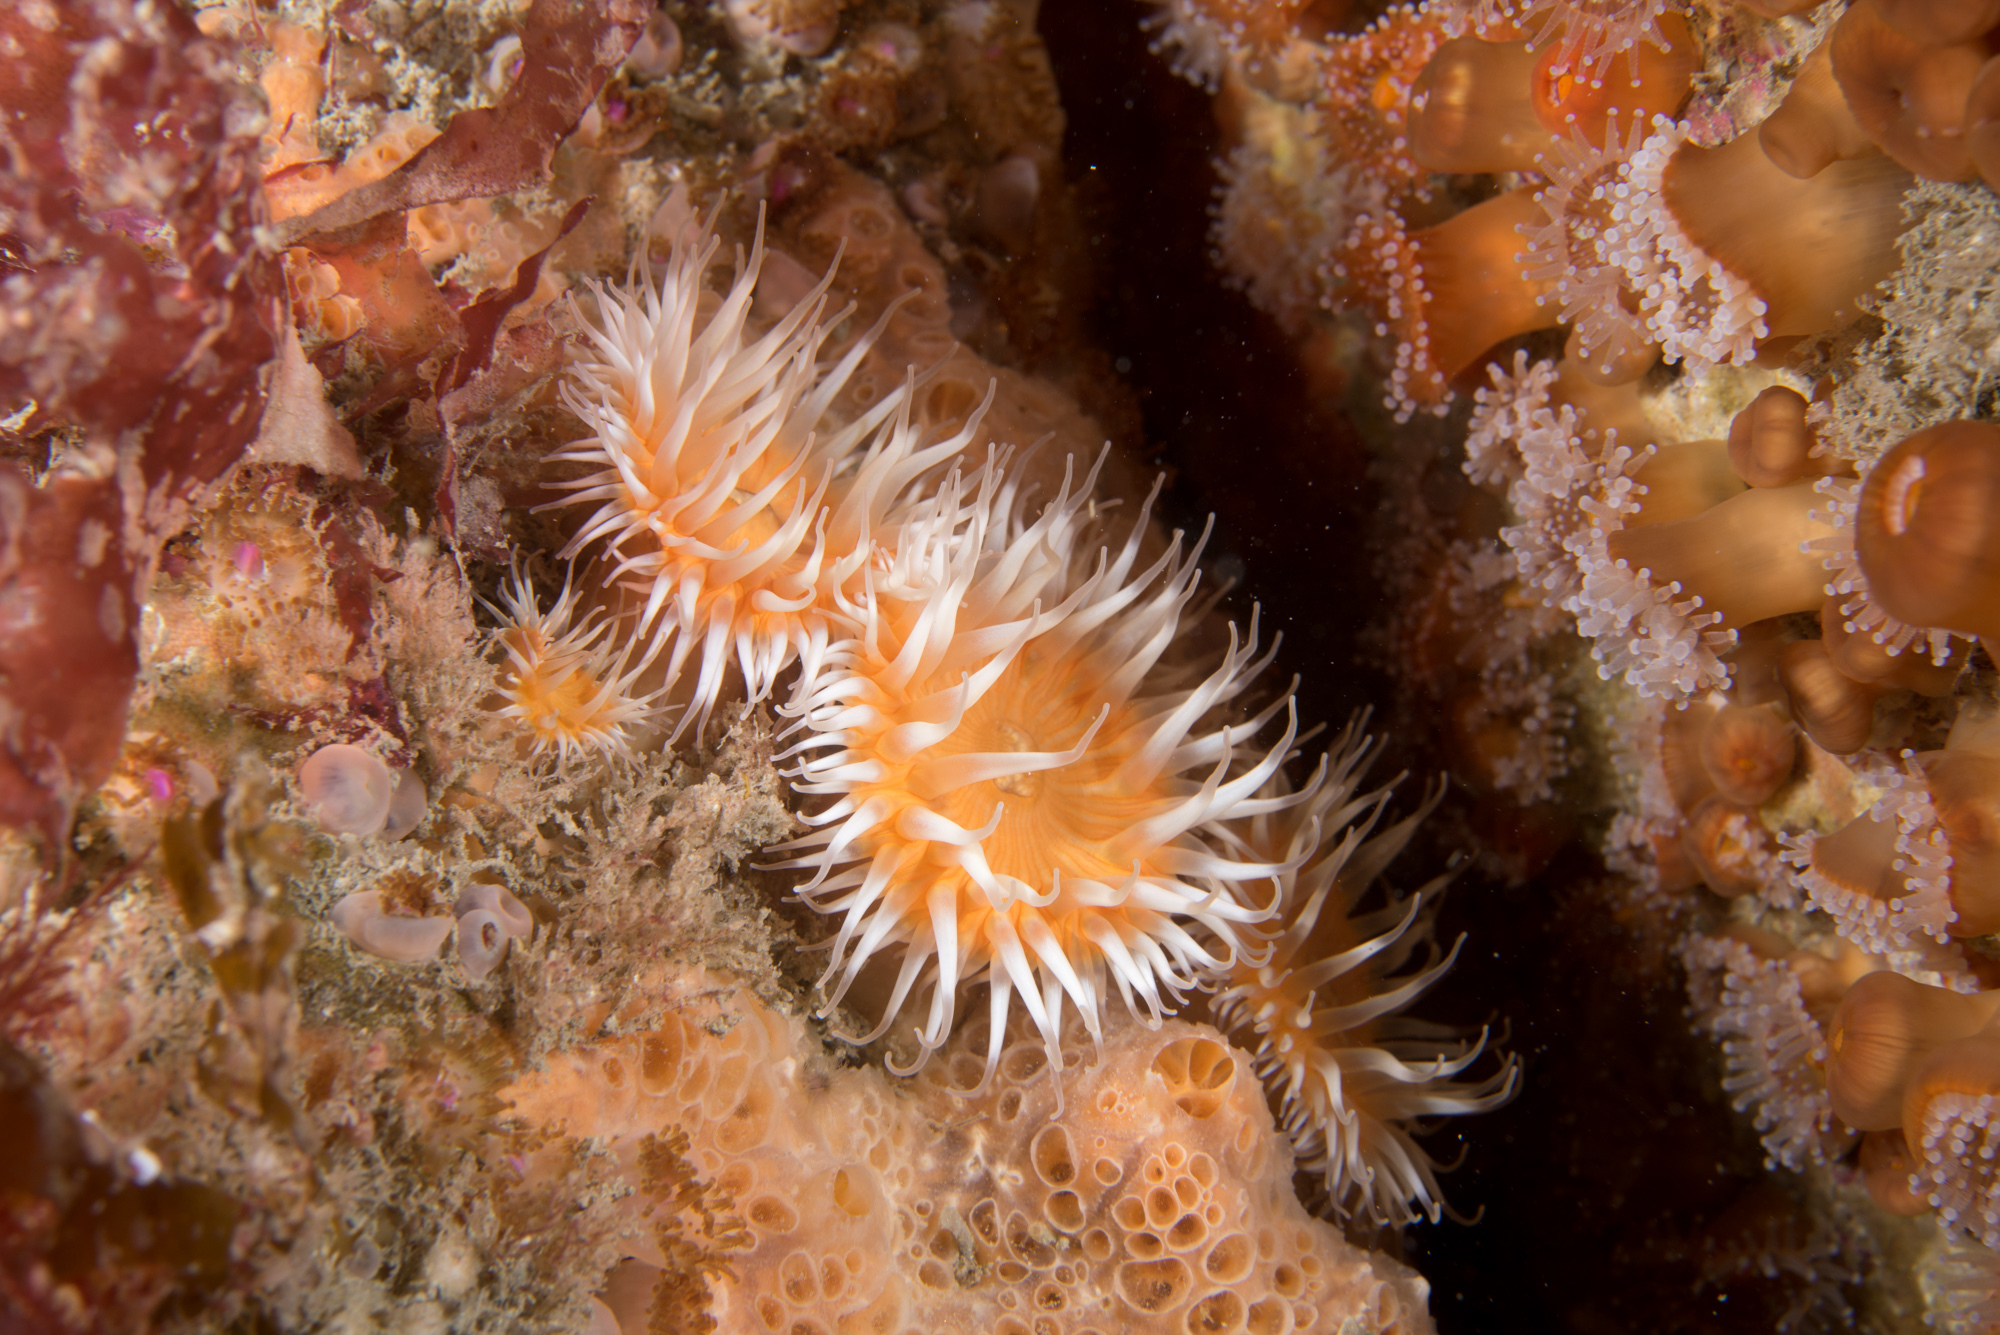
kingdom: Animalia
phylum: Cnidaria
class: Anthozoa
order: Actiniaria
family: Sagartiidae
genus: Cylista
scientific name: Cylista elegans
